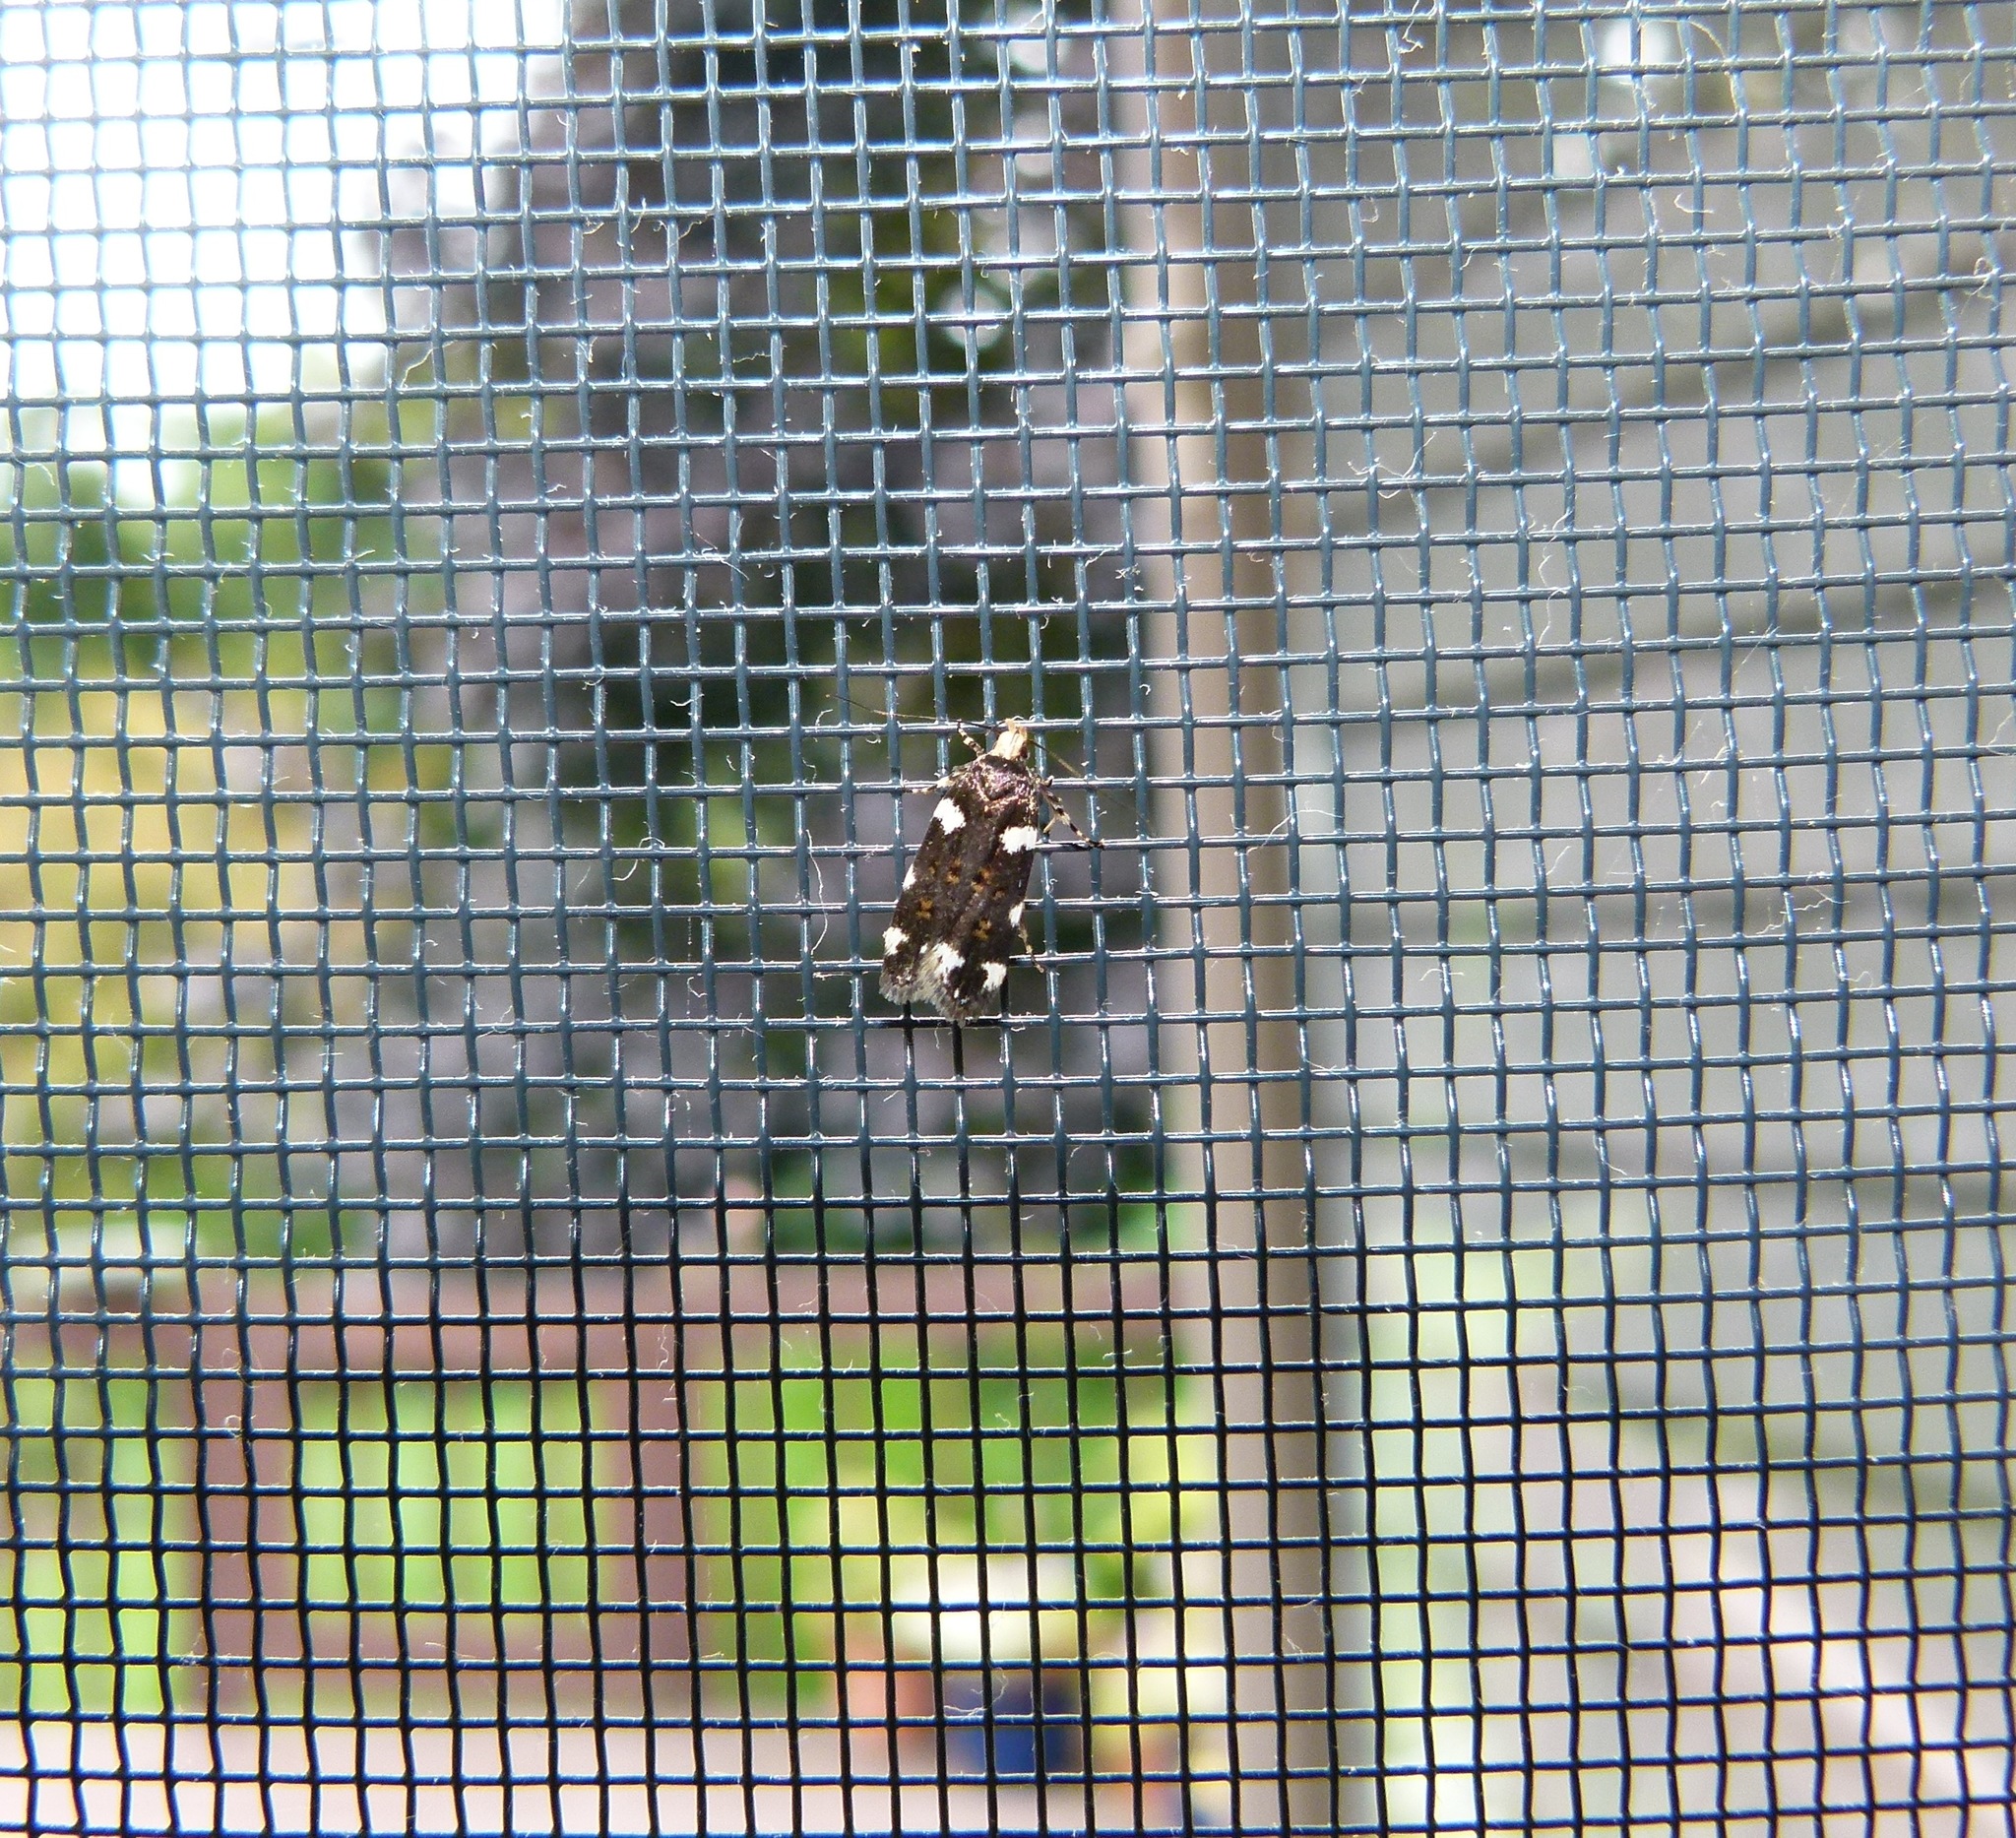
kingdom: Animalia
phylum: Arthropoda
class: Insecta
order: Lepidoptera
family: Gelechiidae
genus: Fascista
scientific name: Fascista cercerisella
